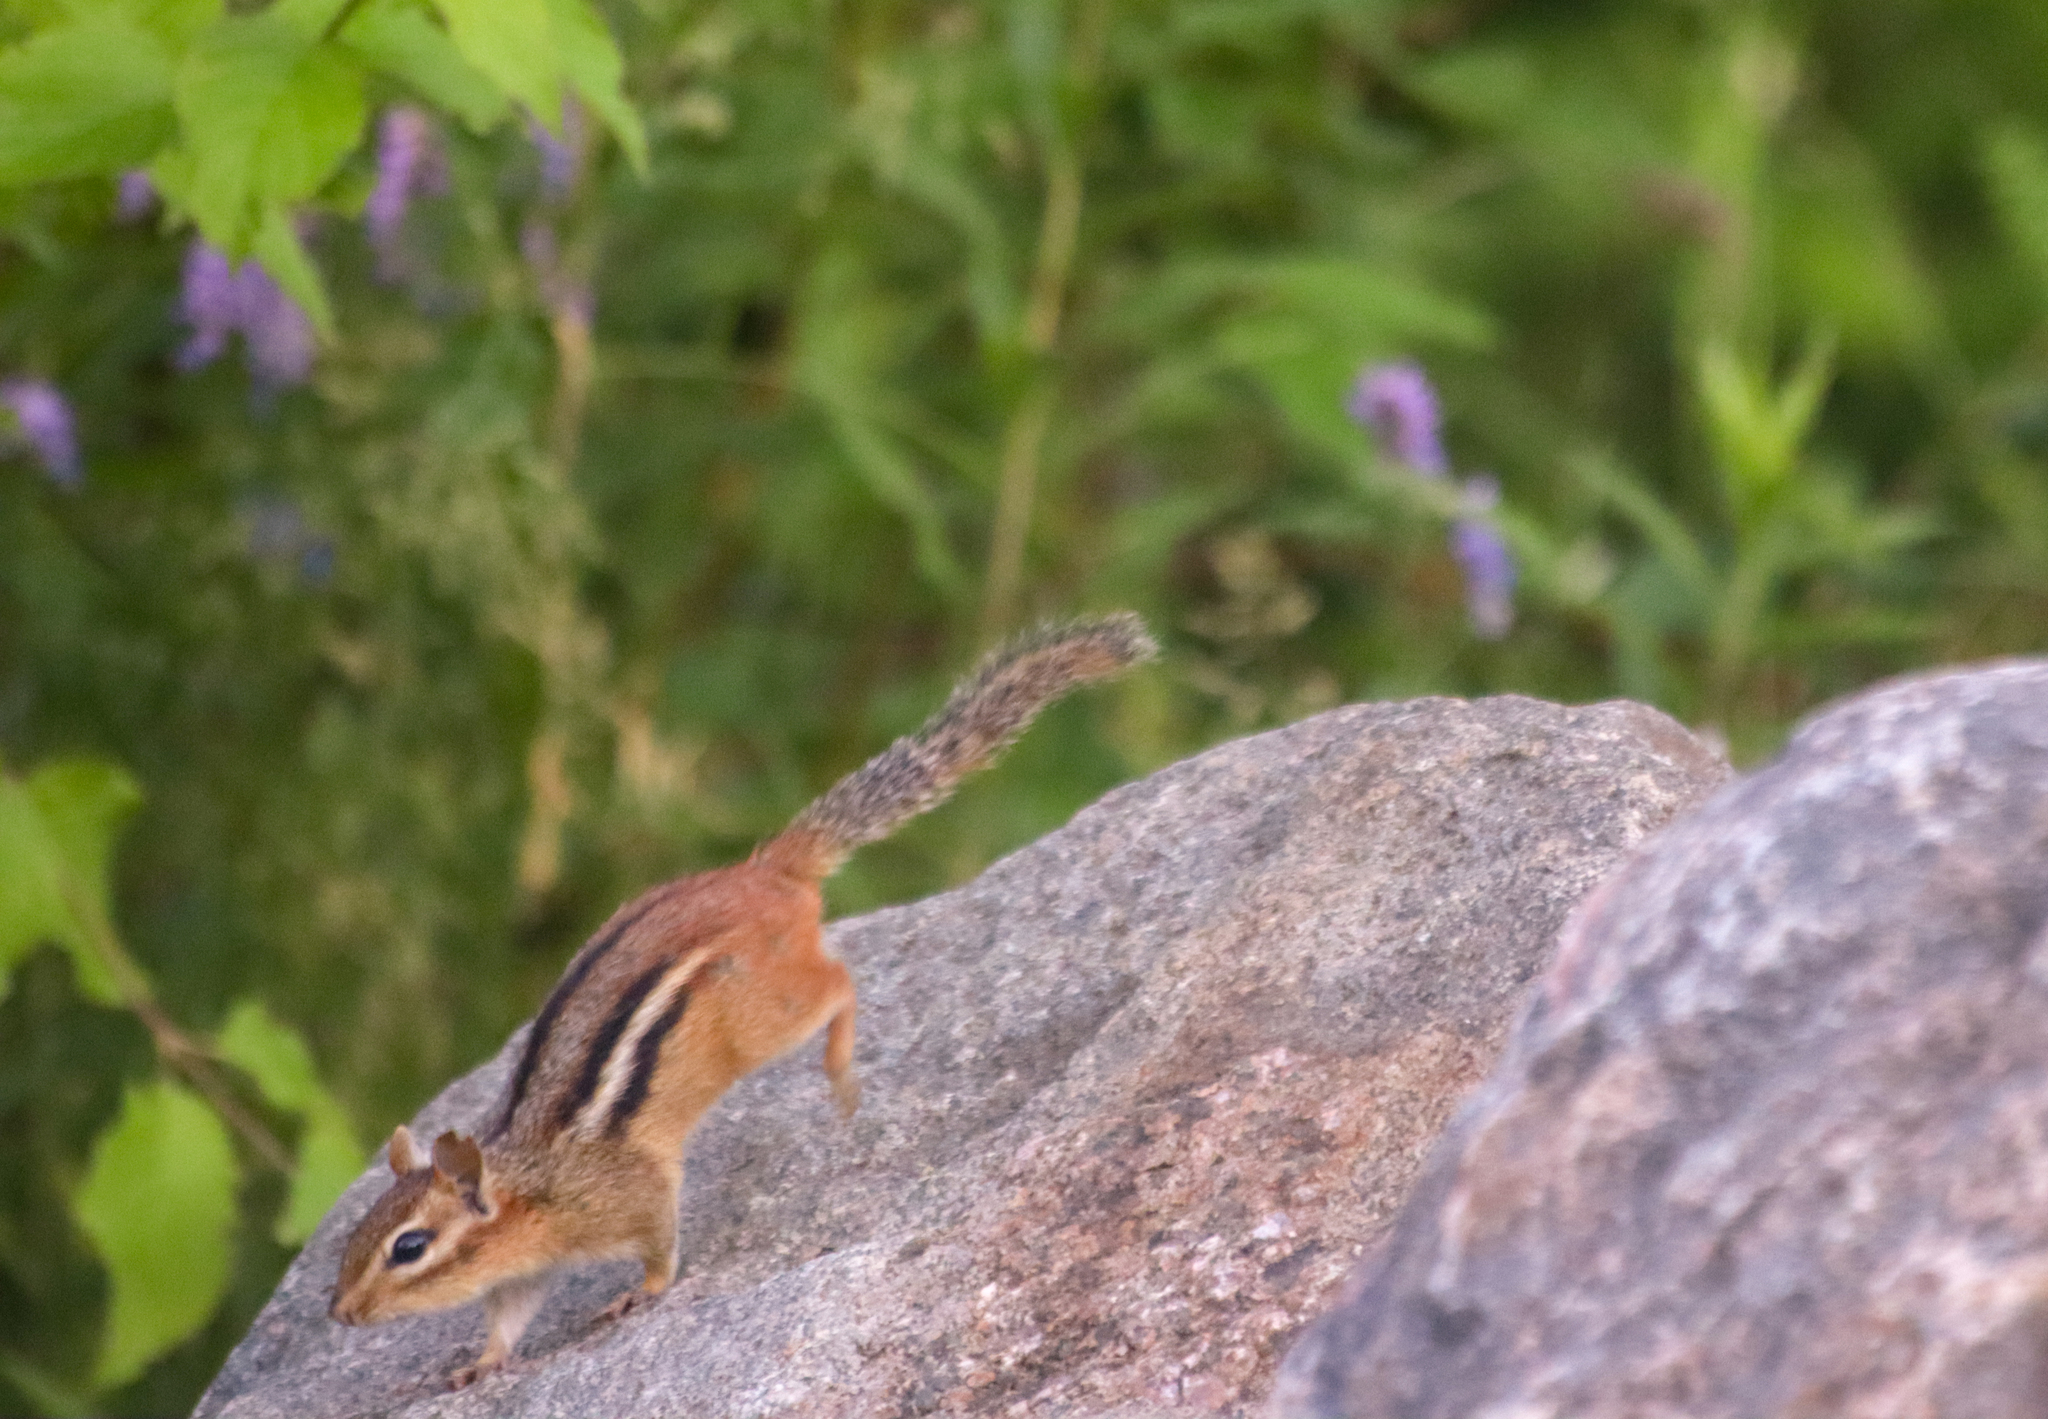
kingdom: Animalia
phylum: Chordata
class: Mammalia
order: Rodentia
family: Sciuridae
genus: Tamias
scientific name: Tamias striatus
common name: Eastern chipmunk
